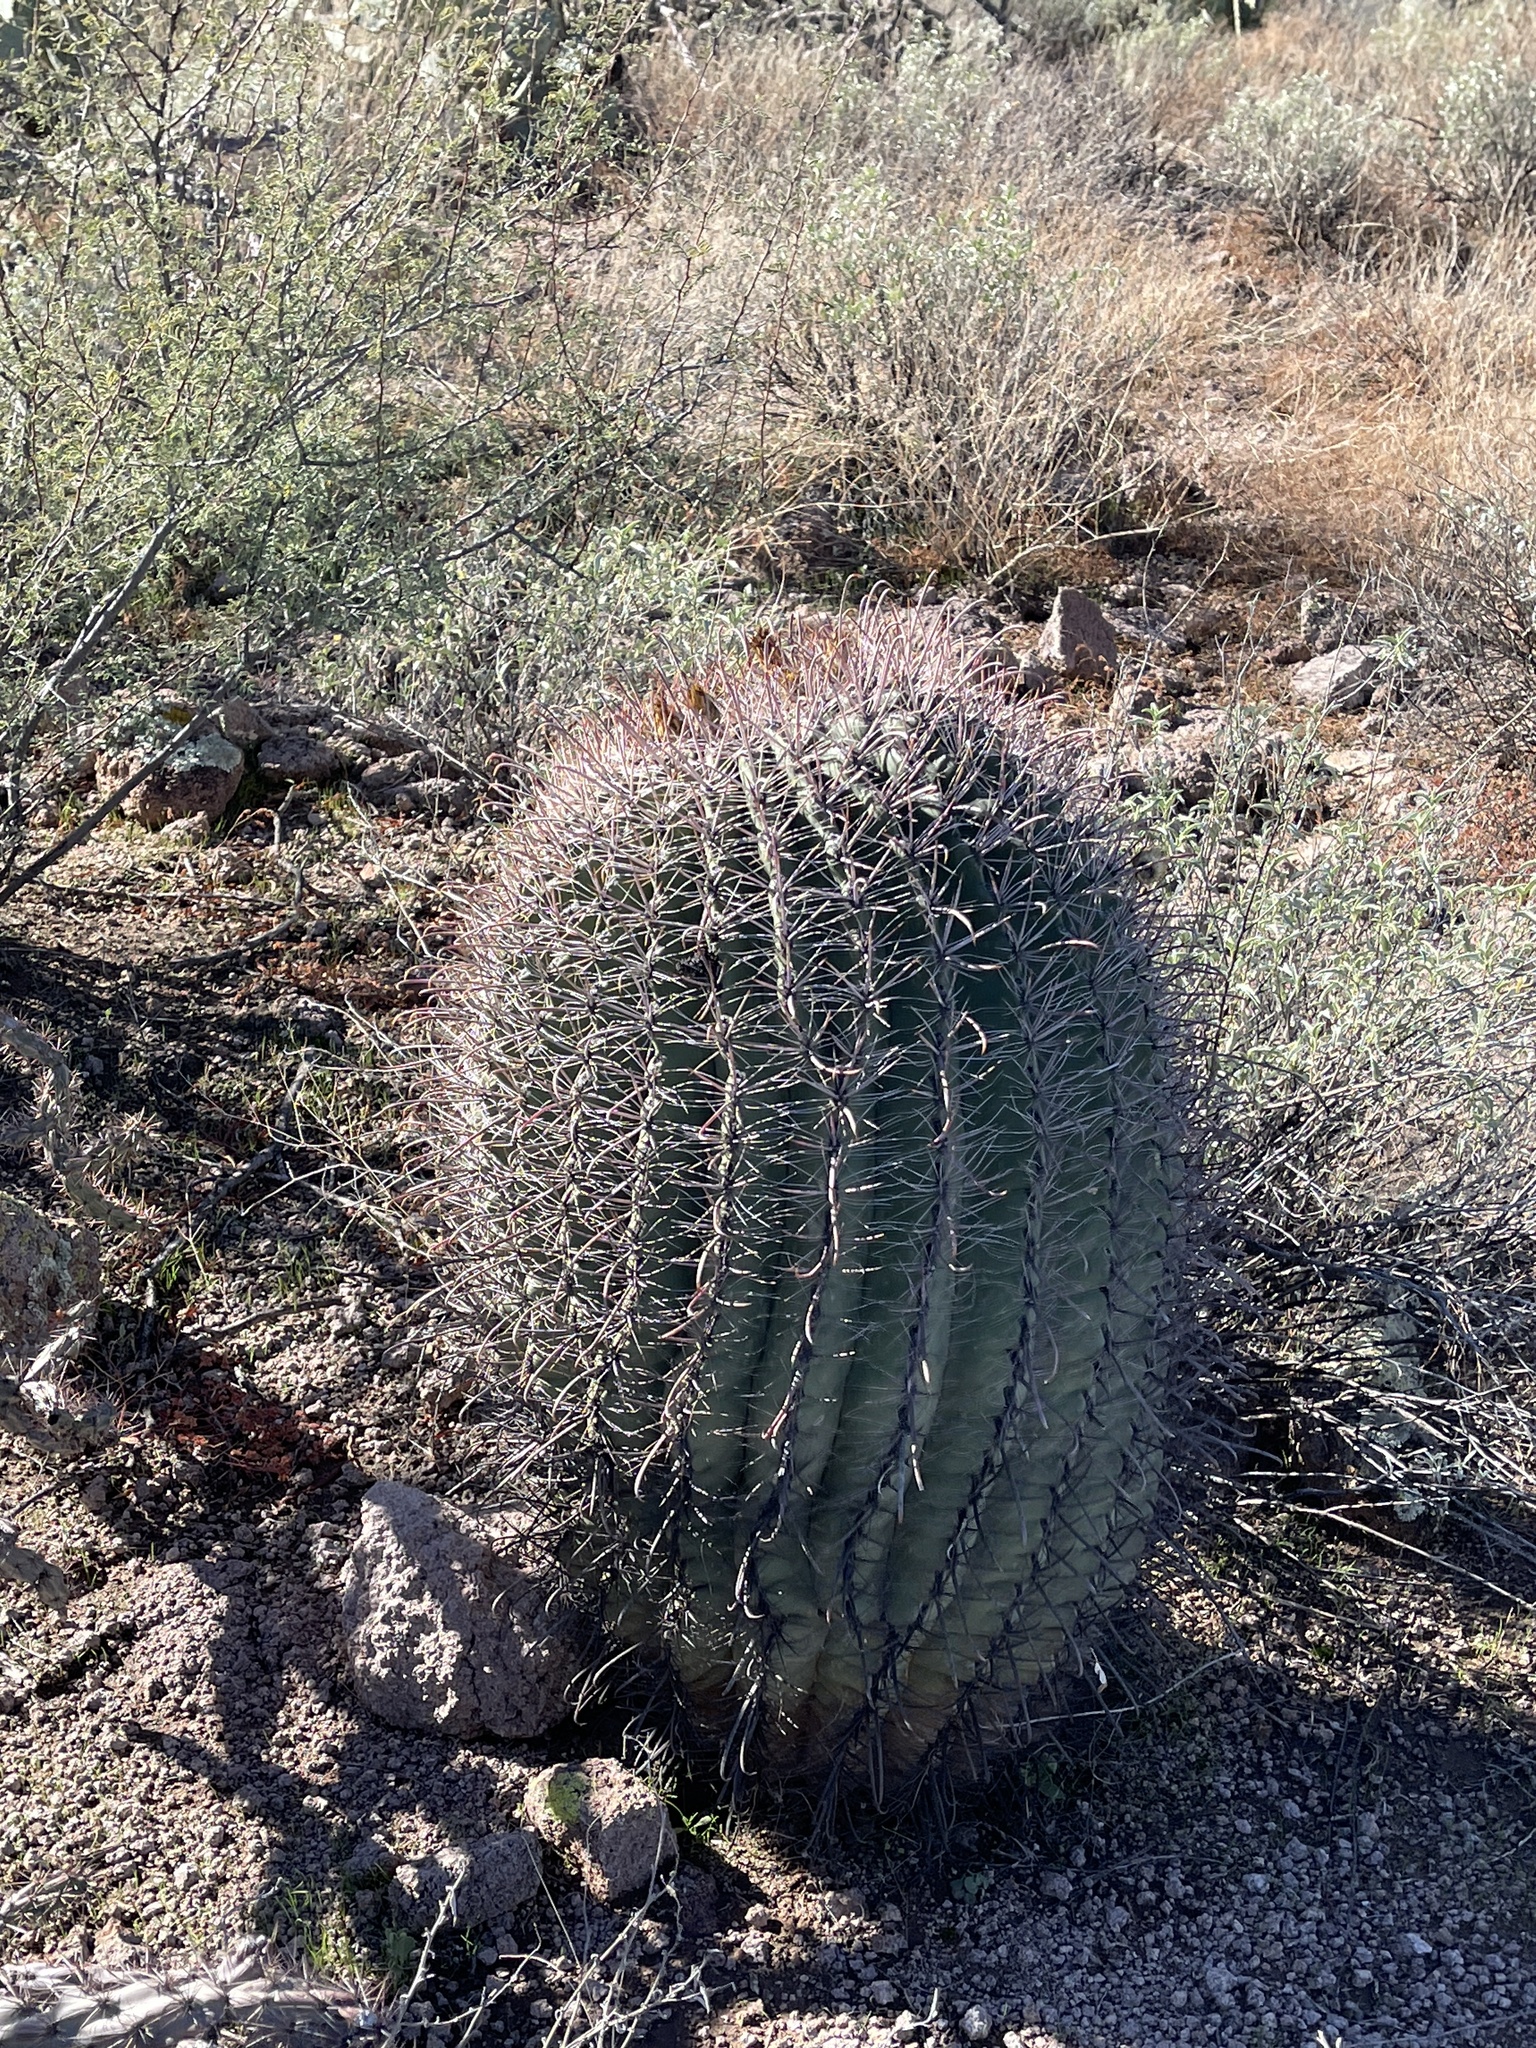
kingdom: Plantae
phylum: Tracheophyta
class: Magnoliopsida
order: Caryophyllales
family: Cactaceae
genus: Ferocactus
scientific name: Ferocactus wislizeni
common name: Candy barrel cactus
